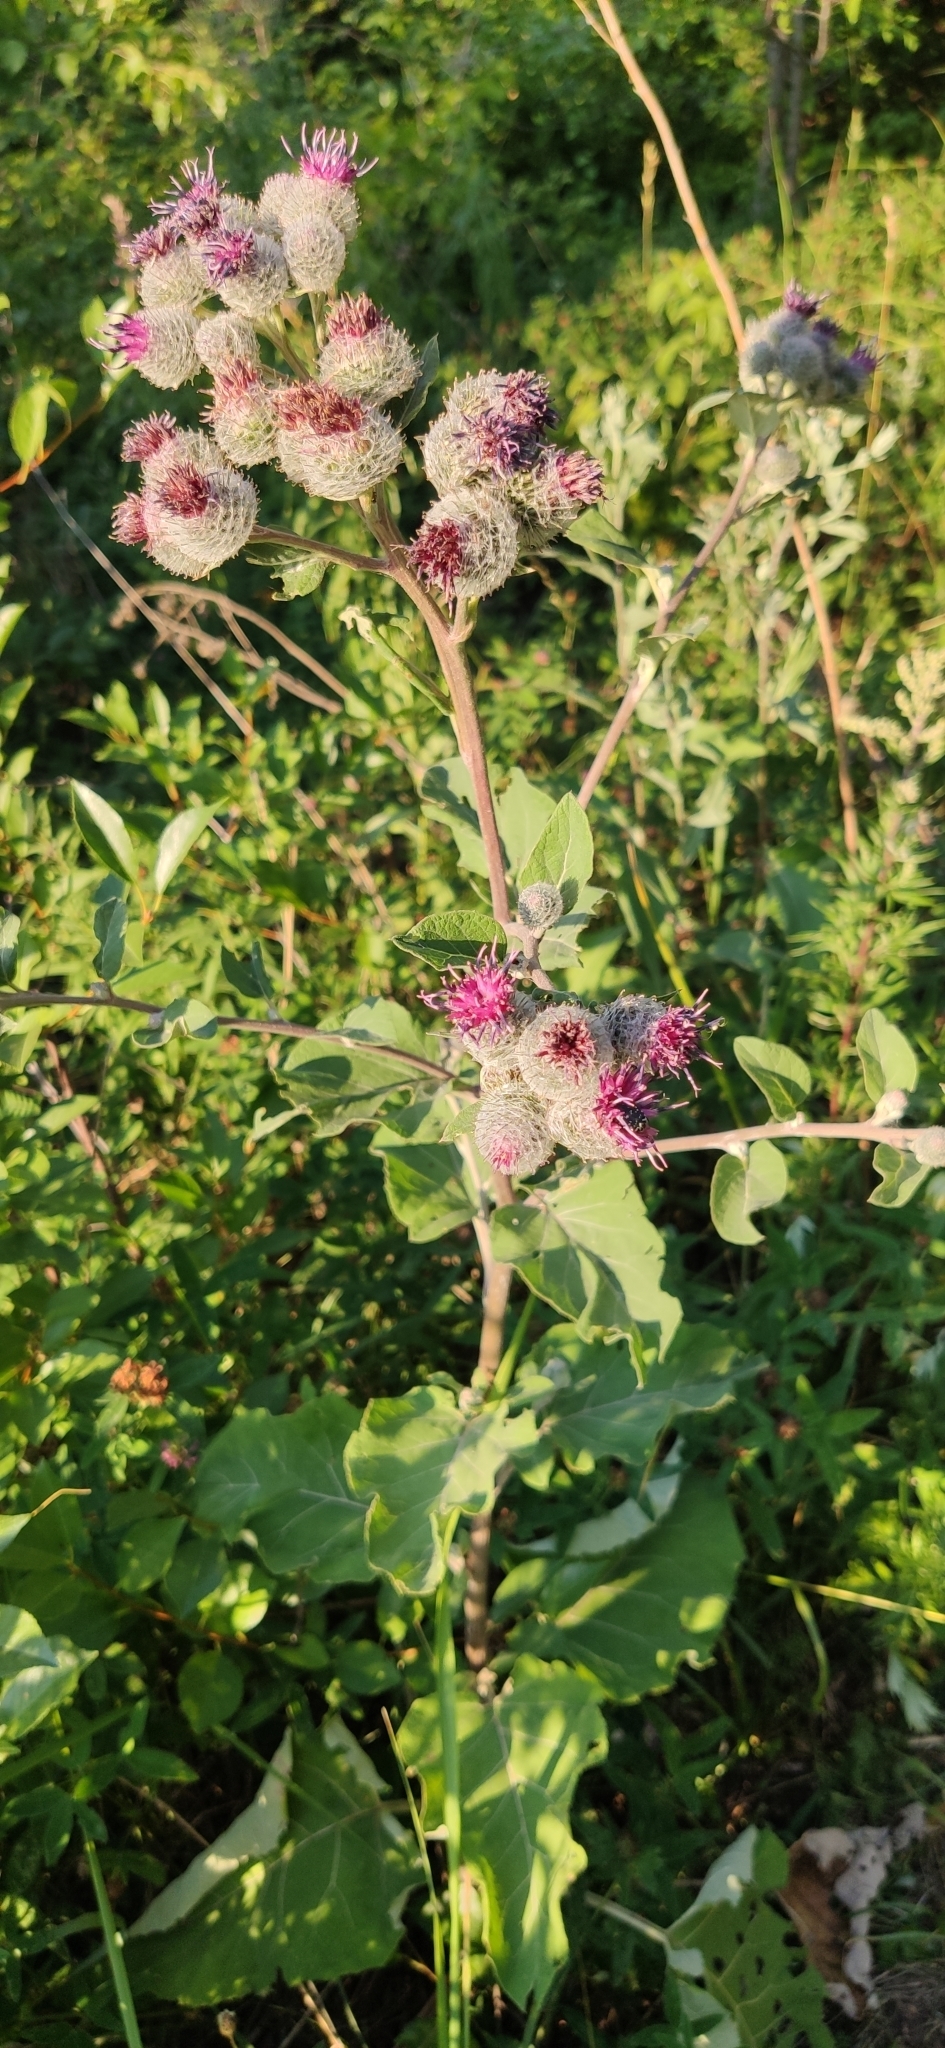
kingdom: Plantae
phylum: Tracheophyta
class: Magnoliopsida
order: Asterales
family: Asteraceae
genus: Arctium
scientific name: Arctium tomentosum
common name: Woolly burdock
